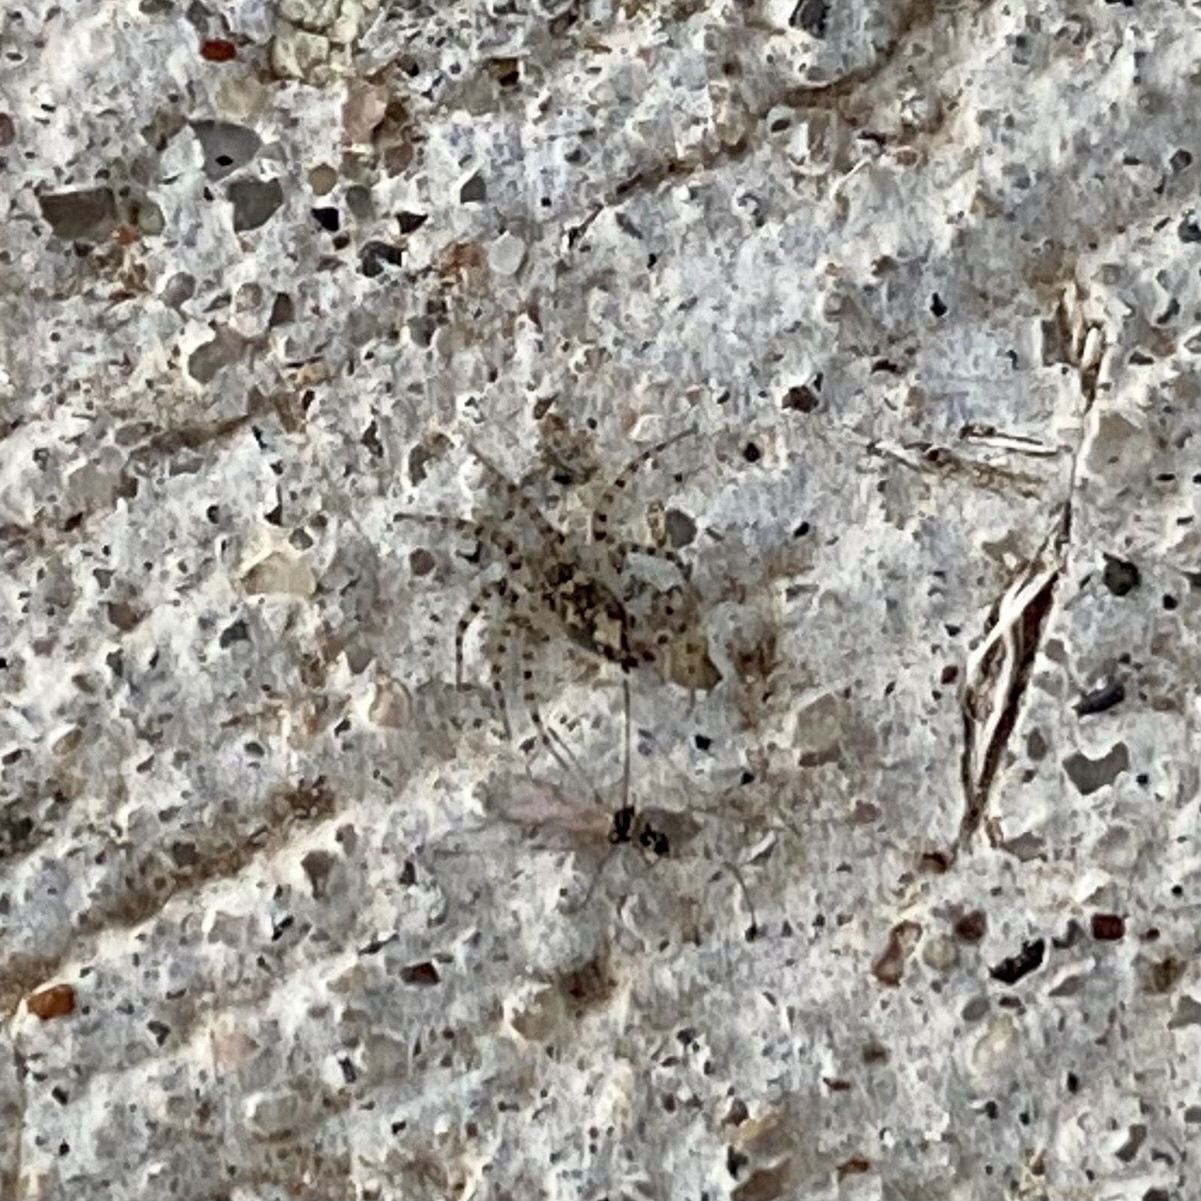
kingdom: Animalia
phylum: Arthropoda
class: Arachnida
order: Araneae
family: Oecobiidae
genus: Oecobius
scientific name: Oecobius
